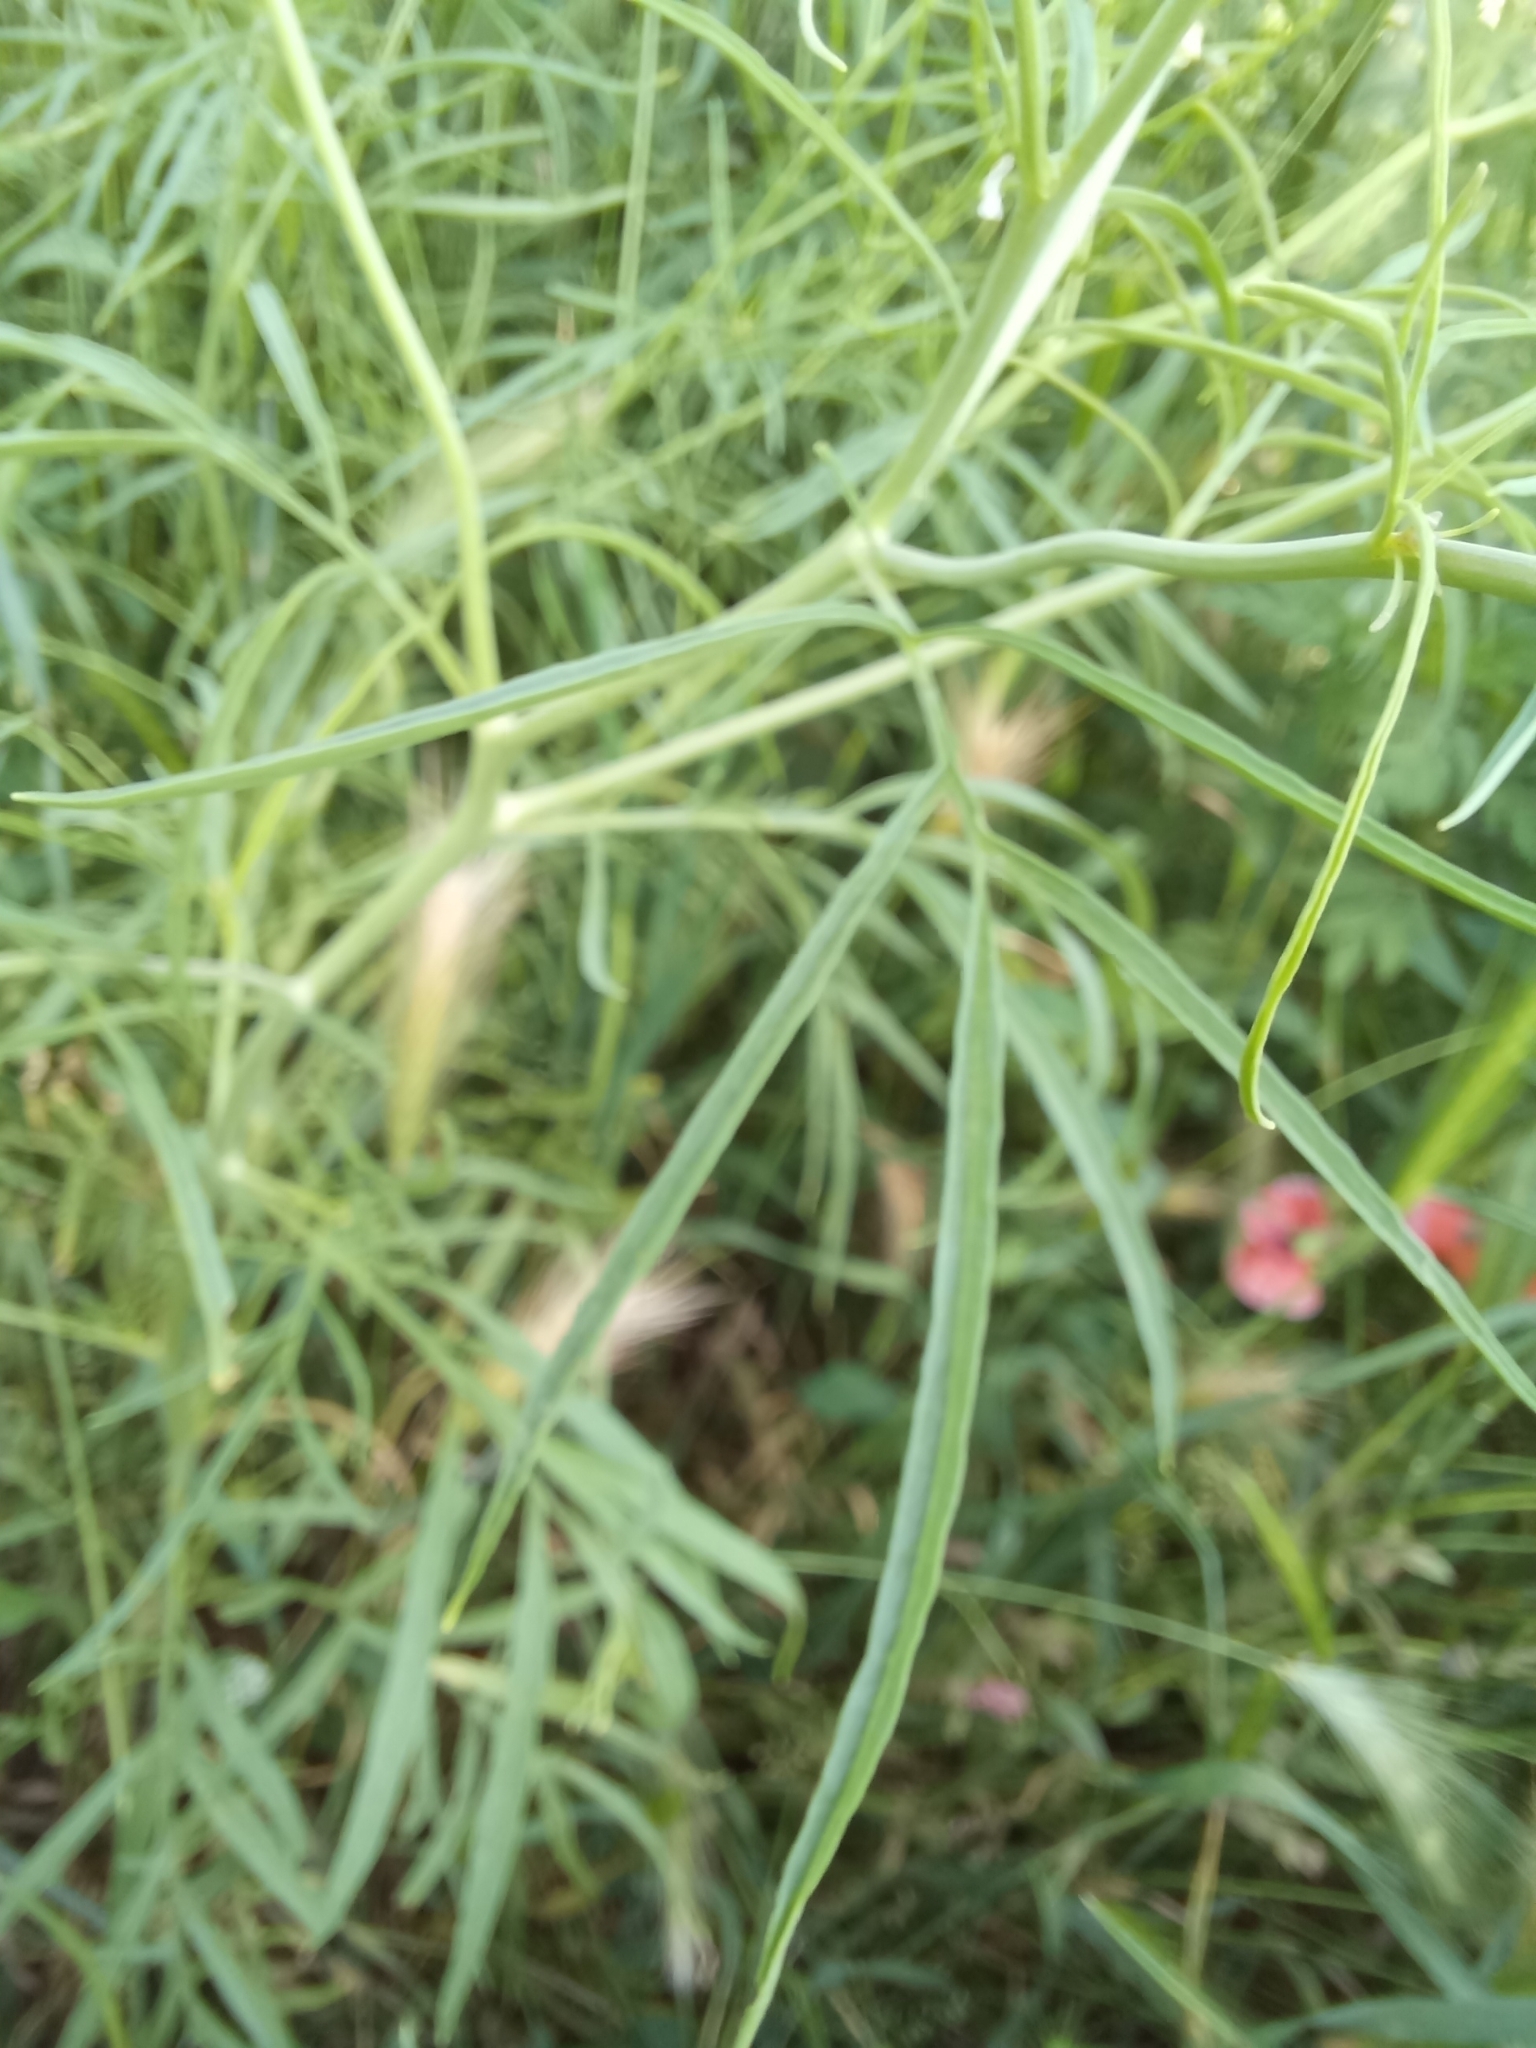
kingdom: Plantae
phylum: Tracheophyta
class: Magnoliopsida
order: Brassicales
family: Brassicaceae
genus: Sisymbrium
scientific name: Sisymbrium altissimum
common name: Tall rocket
